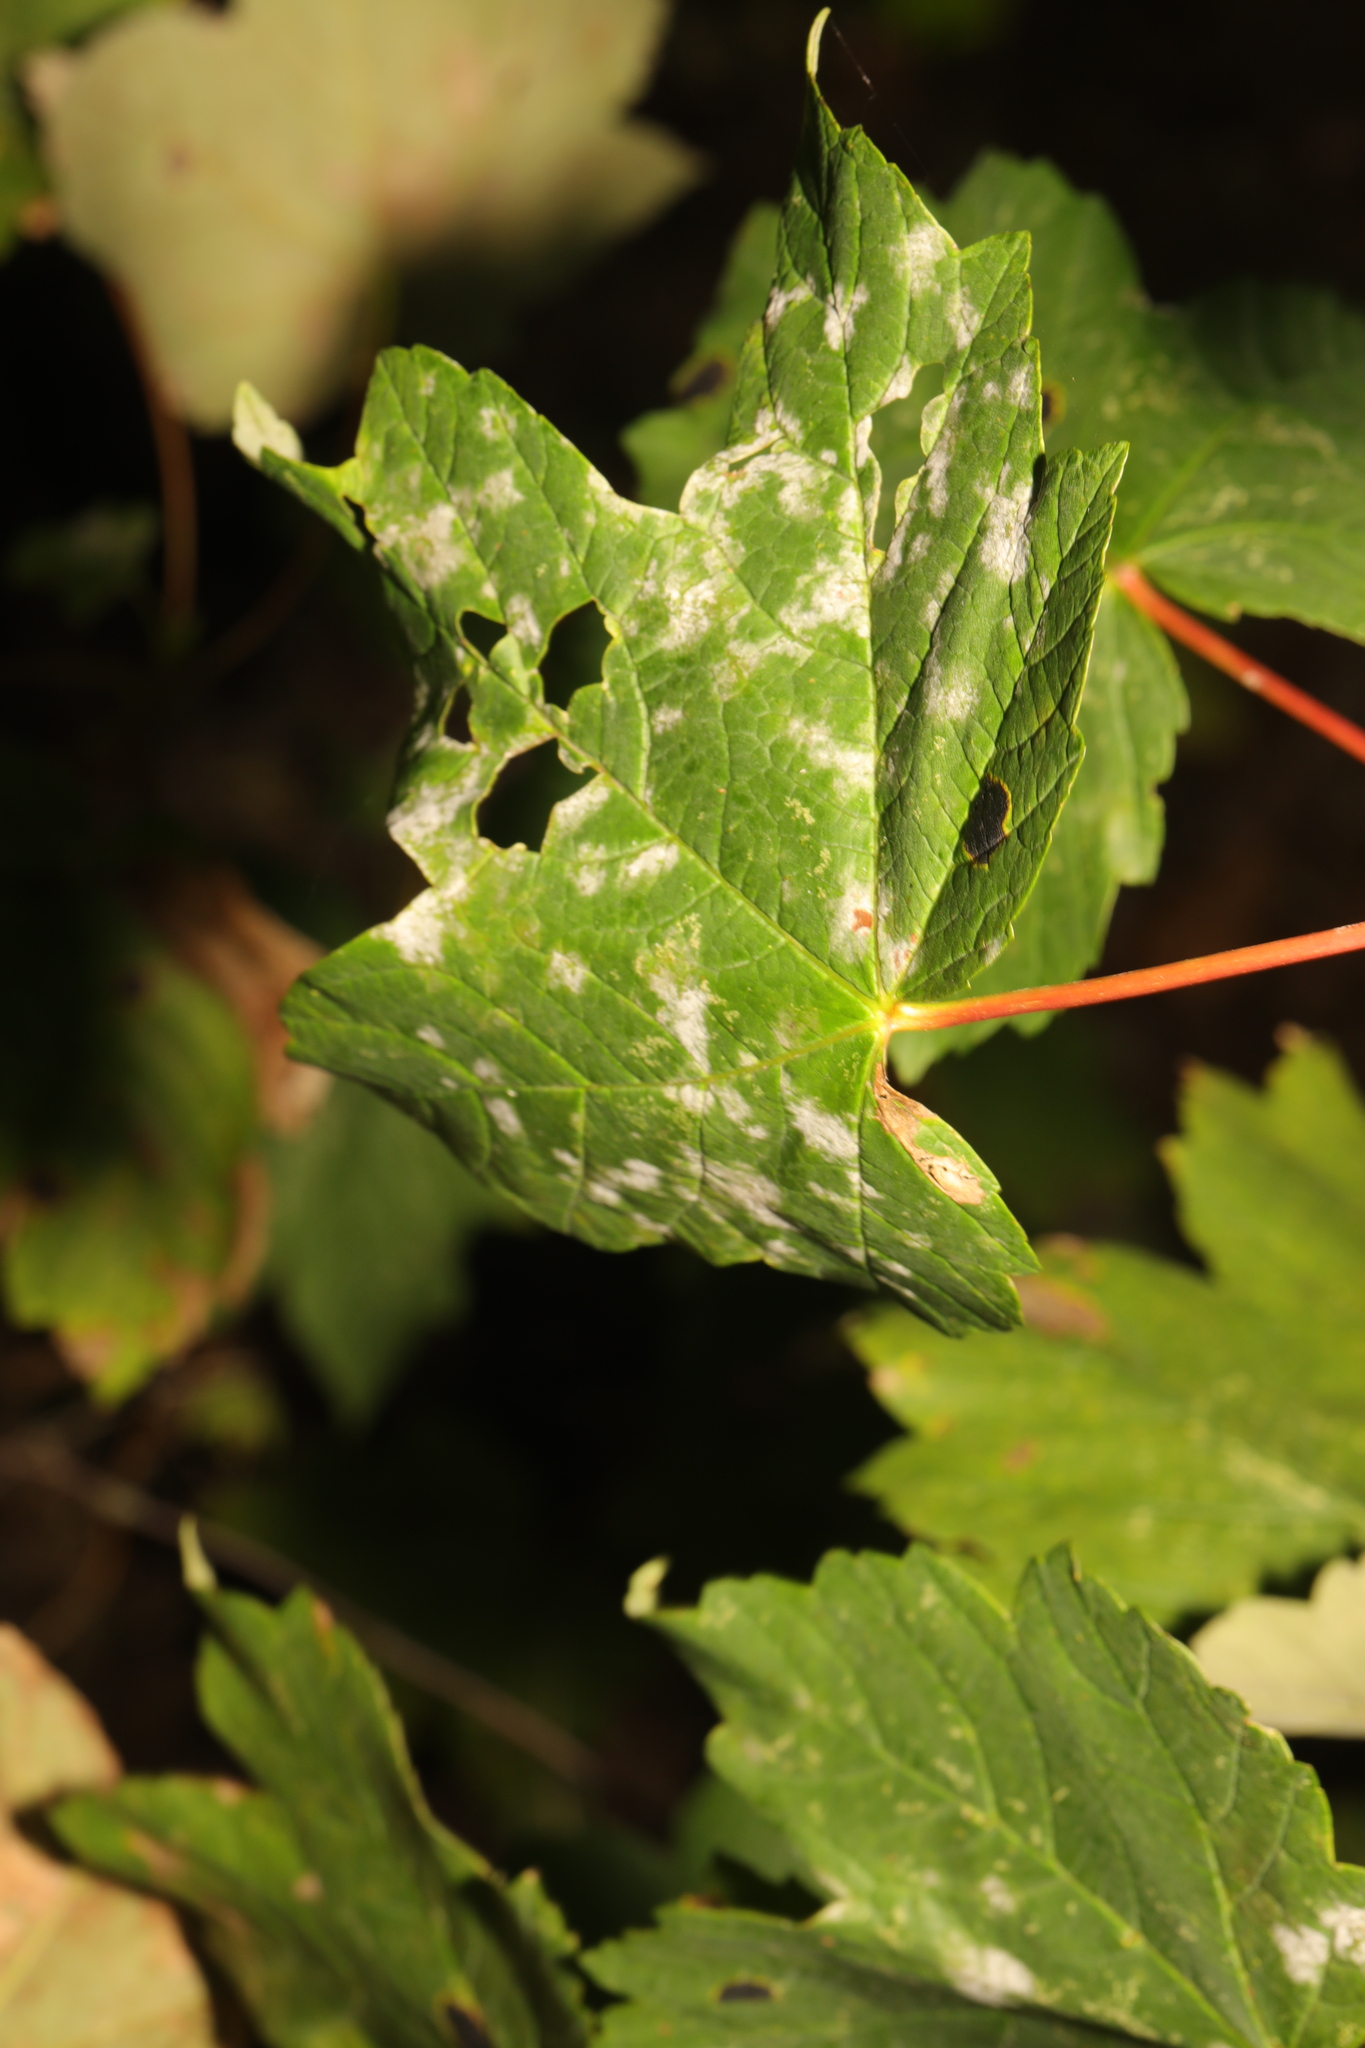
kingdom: Plantae
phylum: Tracheophyta
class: Magnoliopsida
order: Sapindales
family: Sapindaceae
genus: Acer
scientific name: Acer pseudoplatanus
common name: Sycamore
